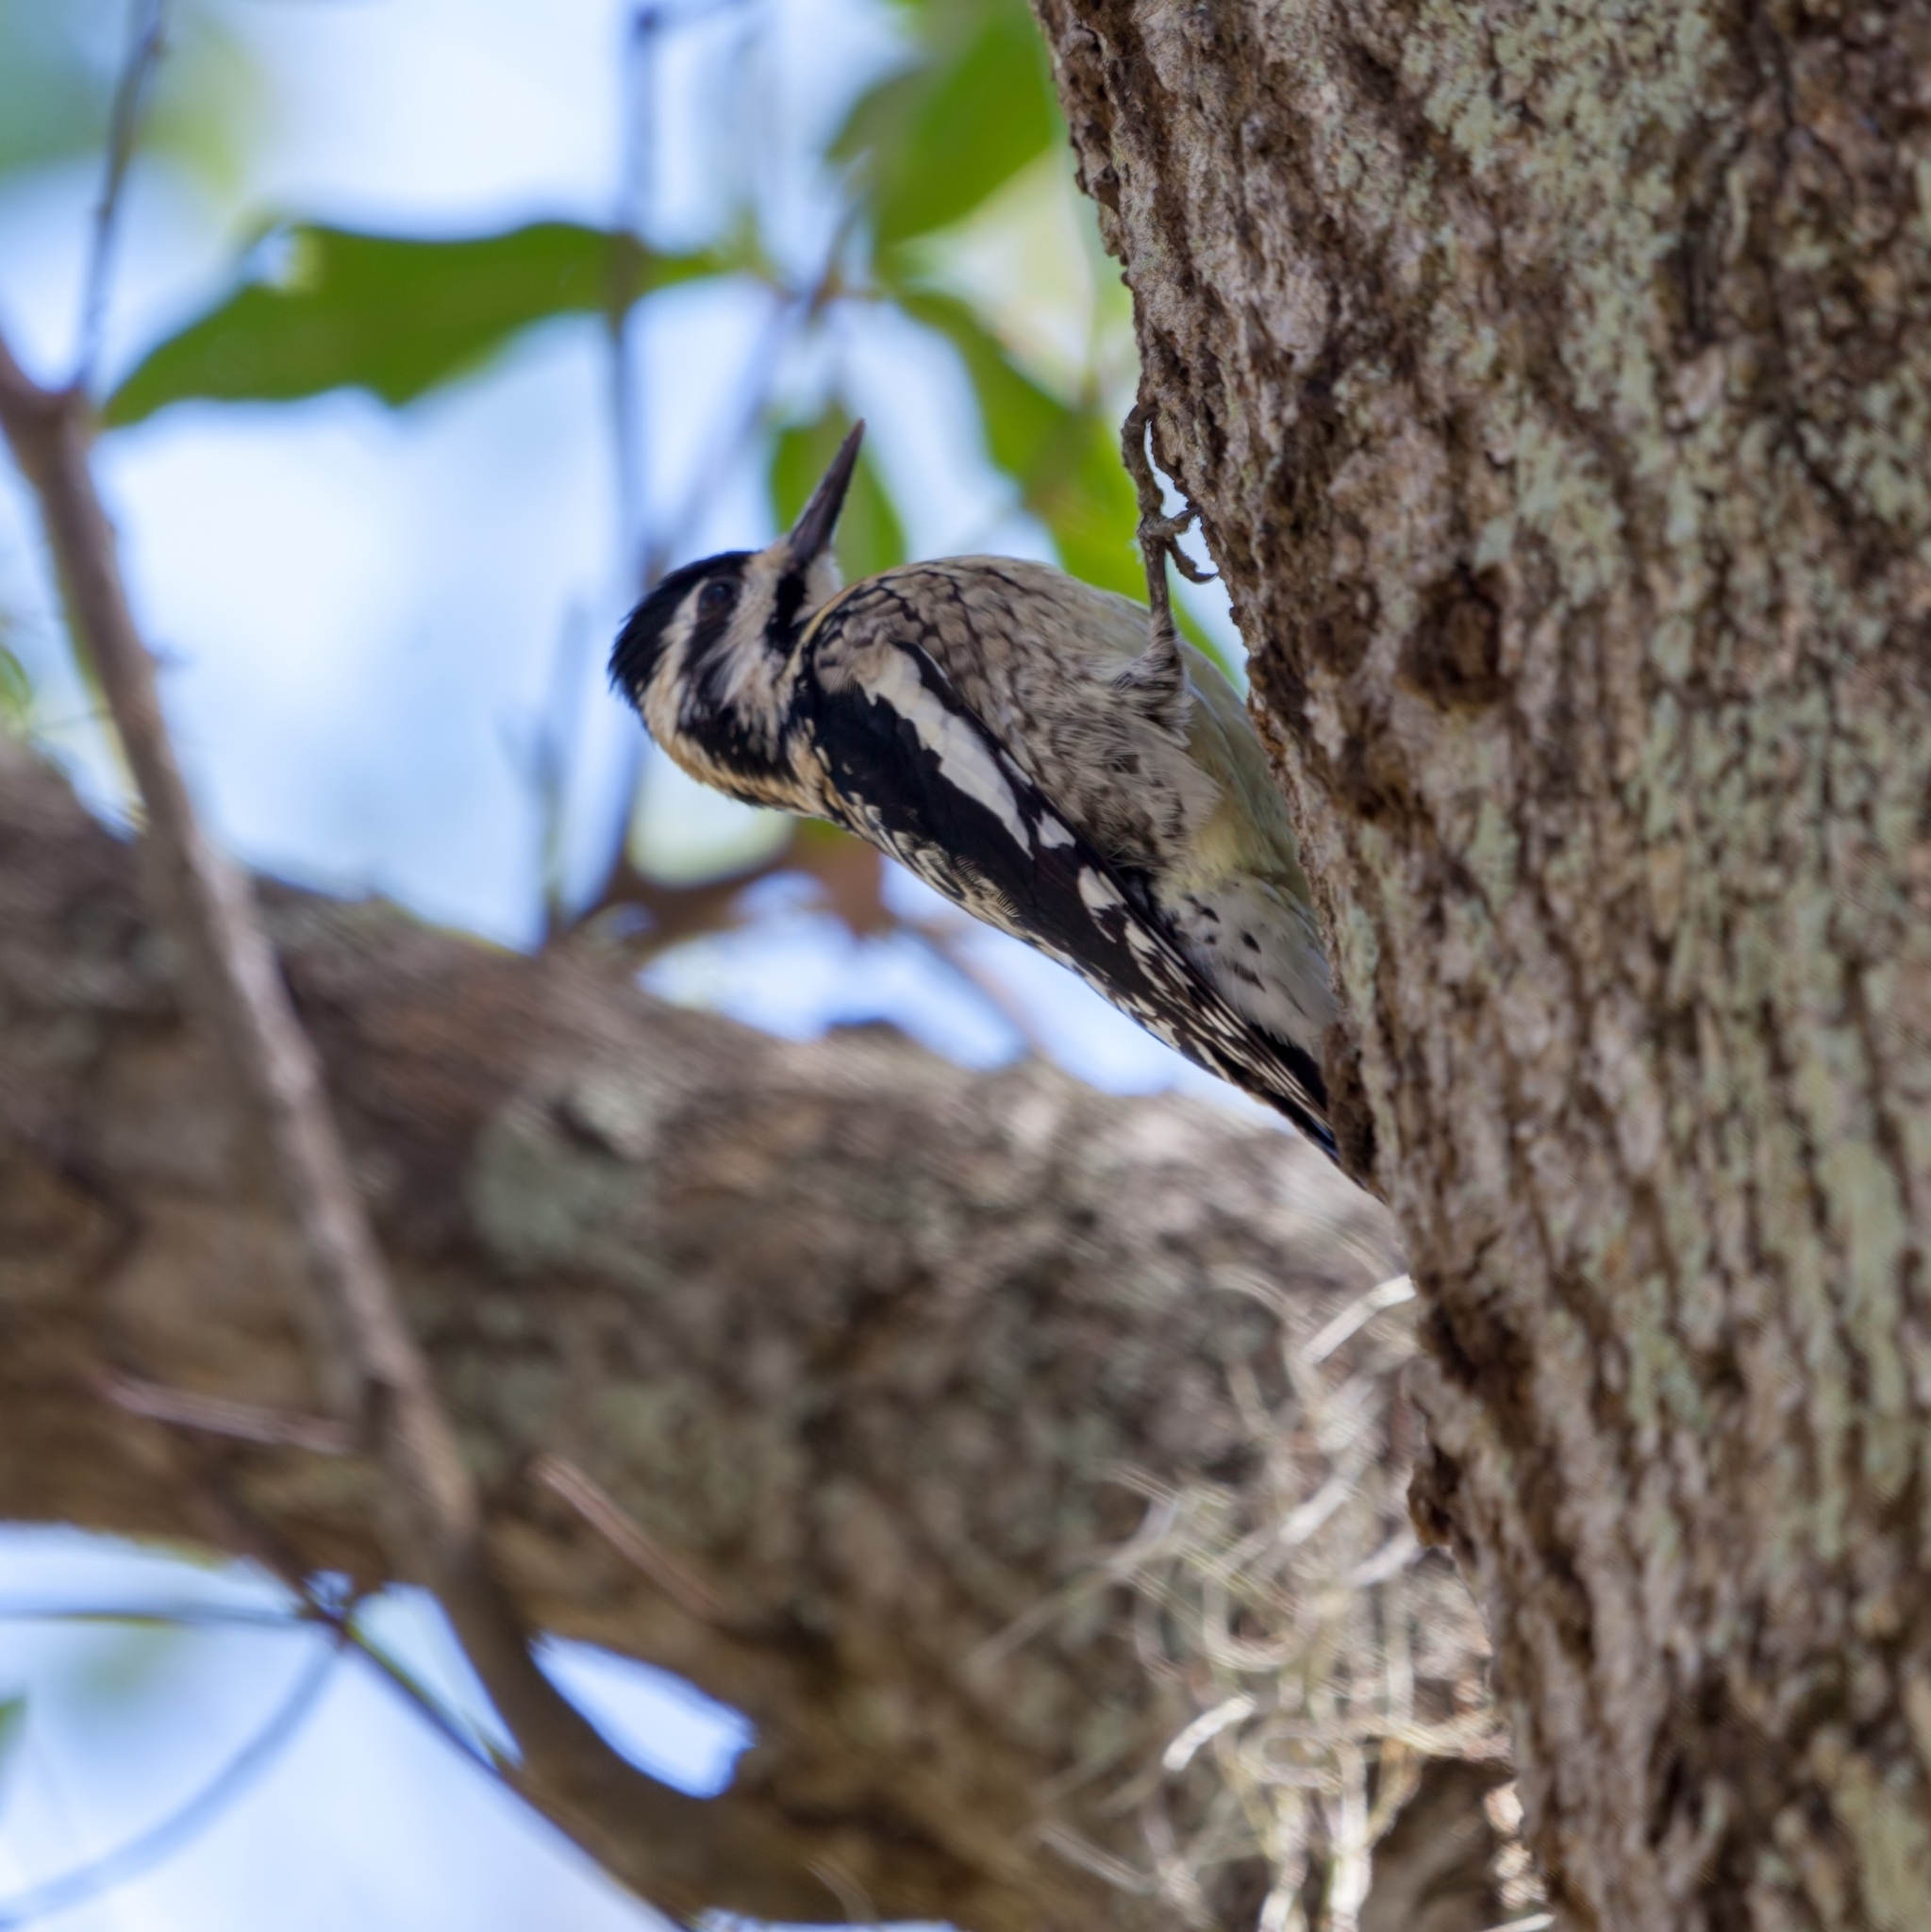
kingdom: Animalia
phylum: Chordata
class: Aves
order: Piciformes
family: Picidae
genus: Sphyrapicus
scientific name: Sphyrapicus varius
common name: Yellow-bellied sapsucker
